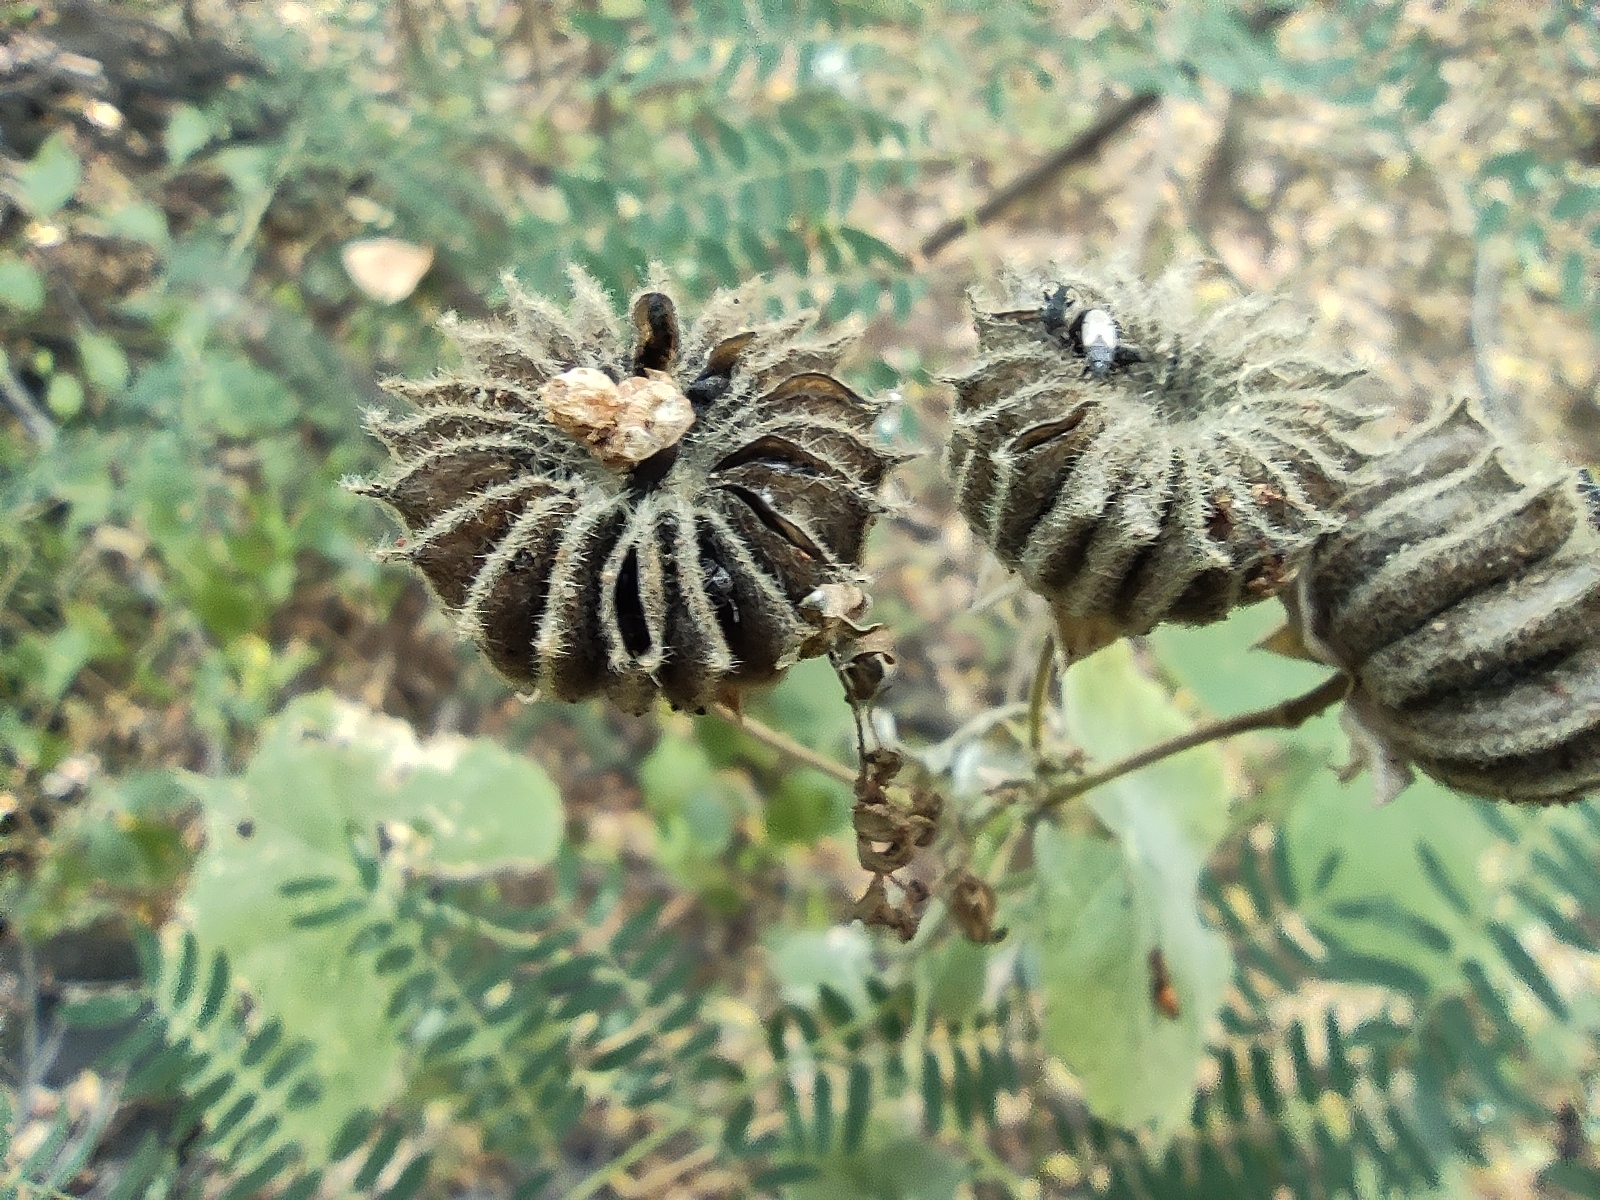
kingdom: Plantae
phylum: Tracheophyta
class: Magnoliopsida
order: Malvales
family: Malvaceae
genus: Abutilon
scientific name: Abutilon indicum
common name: Indian abutilon
